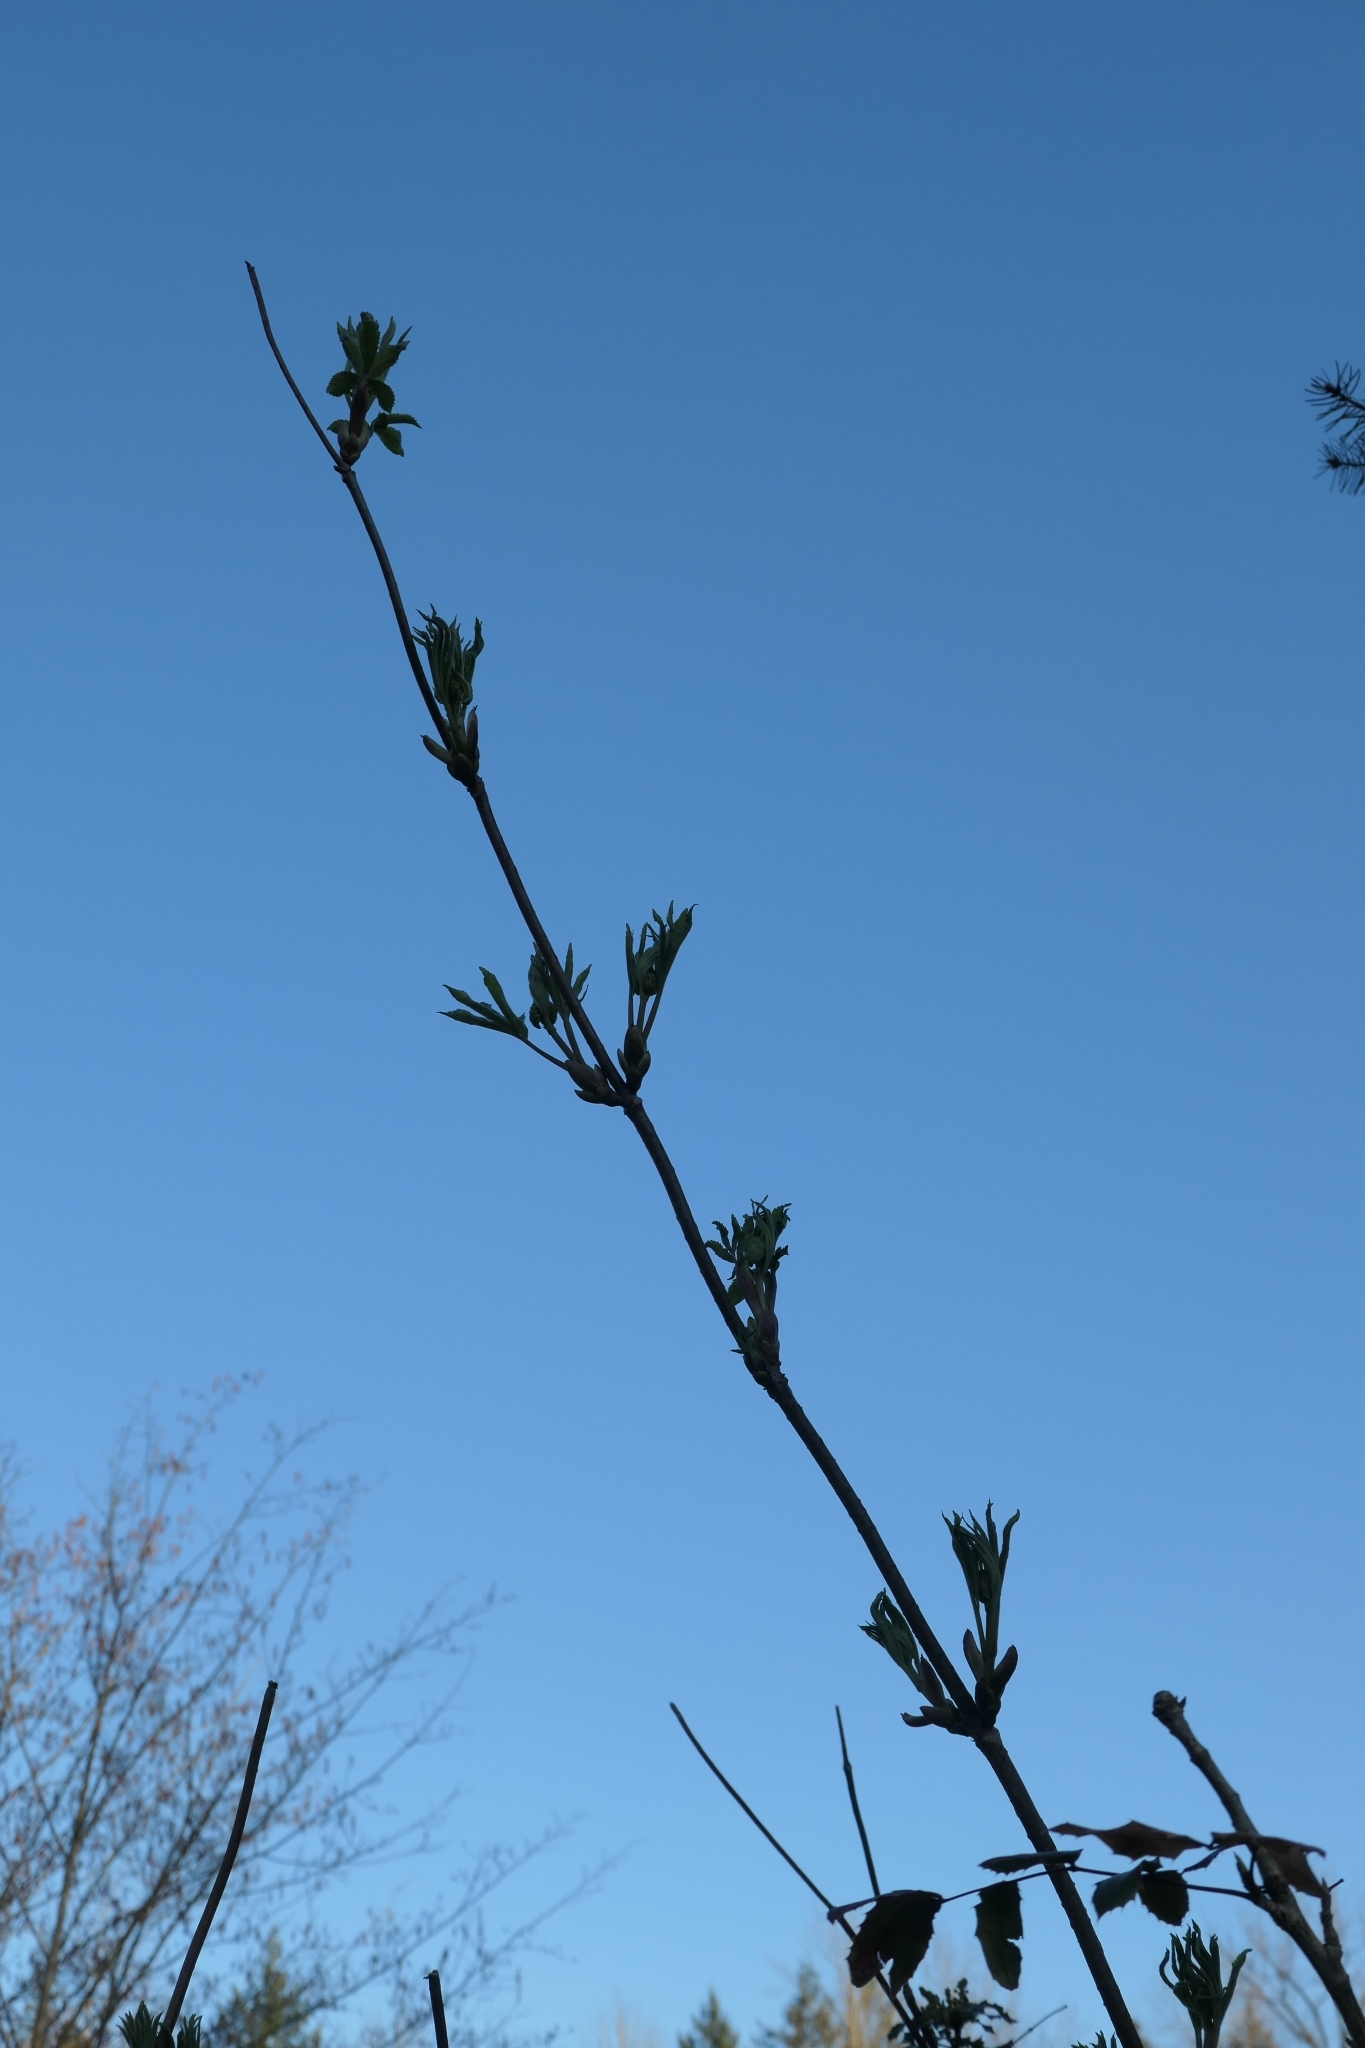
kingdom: Plantae
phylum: Tracheophyta
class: Magnoliopsida
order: Dipsacales
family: Viburnaceae
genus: Sambucus
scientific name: Sambucus racemosa
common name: Red-berried elder
